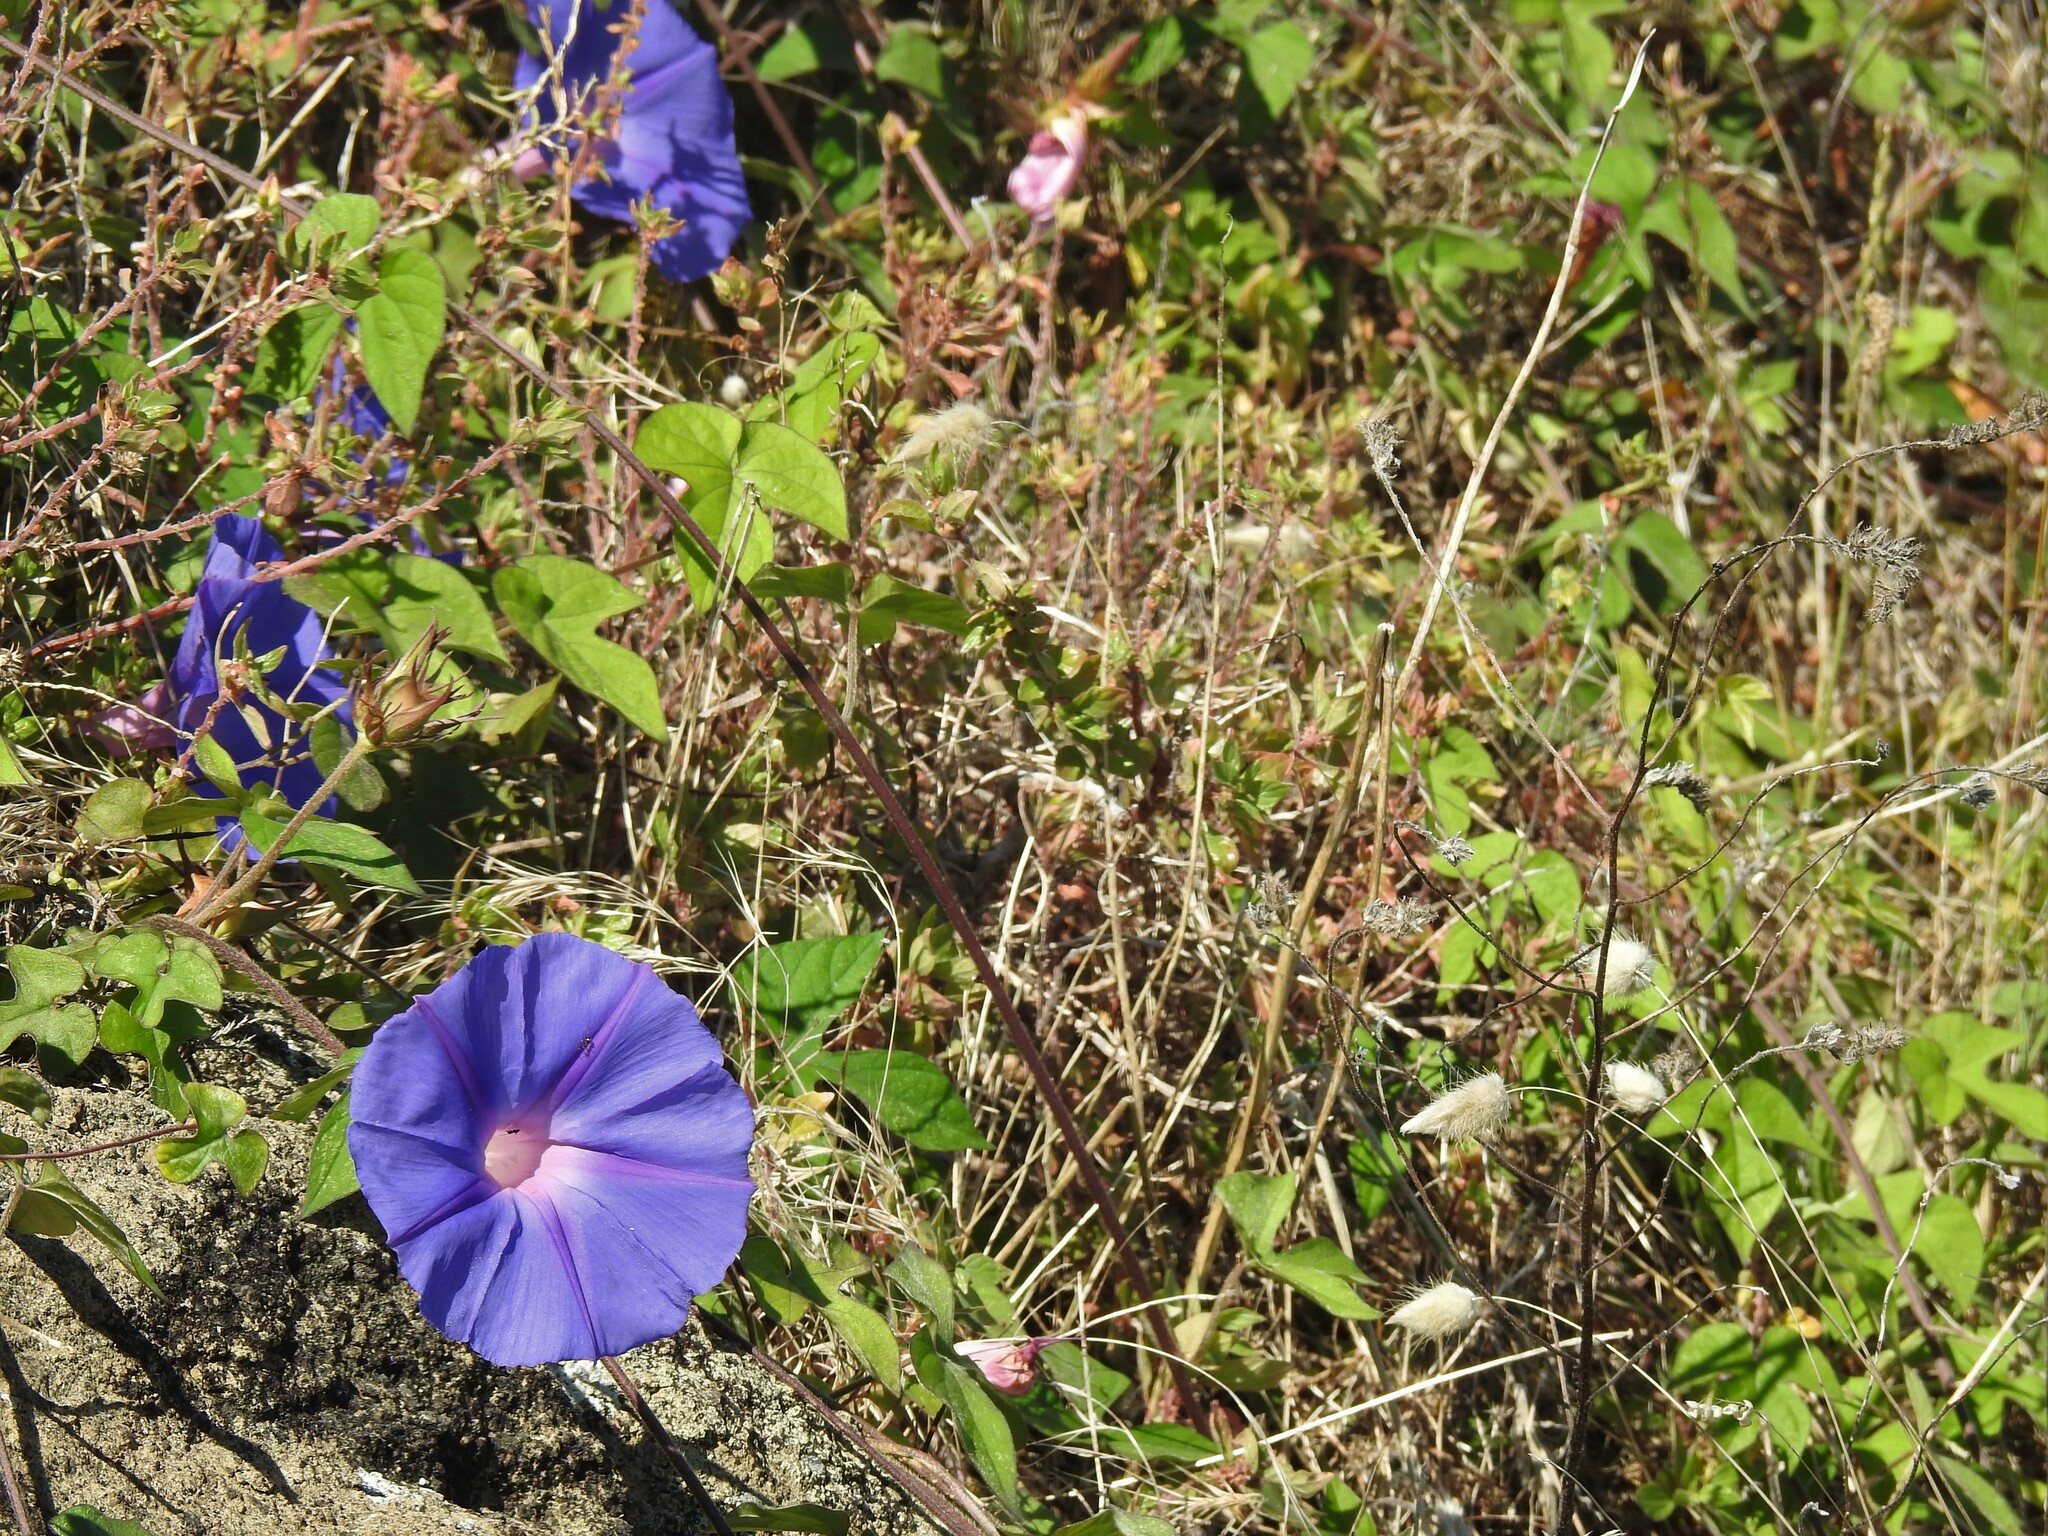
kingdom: Plantae
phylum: Tracheophyta
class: Magnoliopsida
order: Solanales
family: Convolvulaceae
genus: Ipomoea
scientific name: Ipomoea indica
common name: Blue dawnflower
